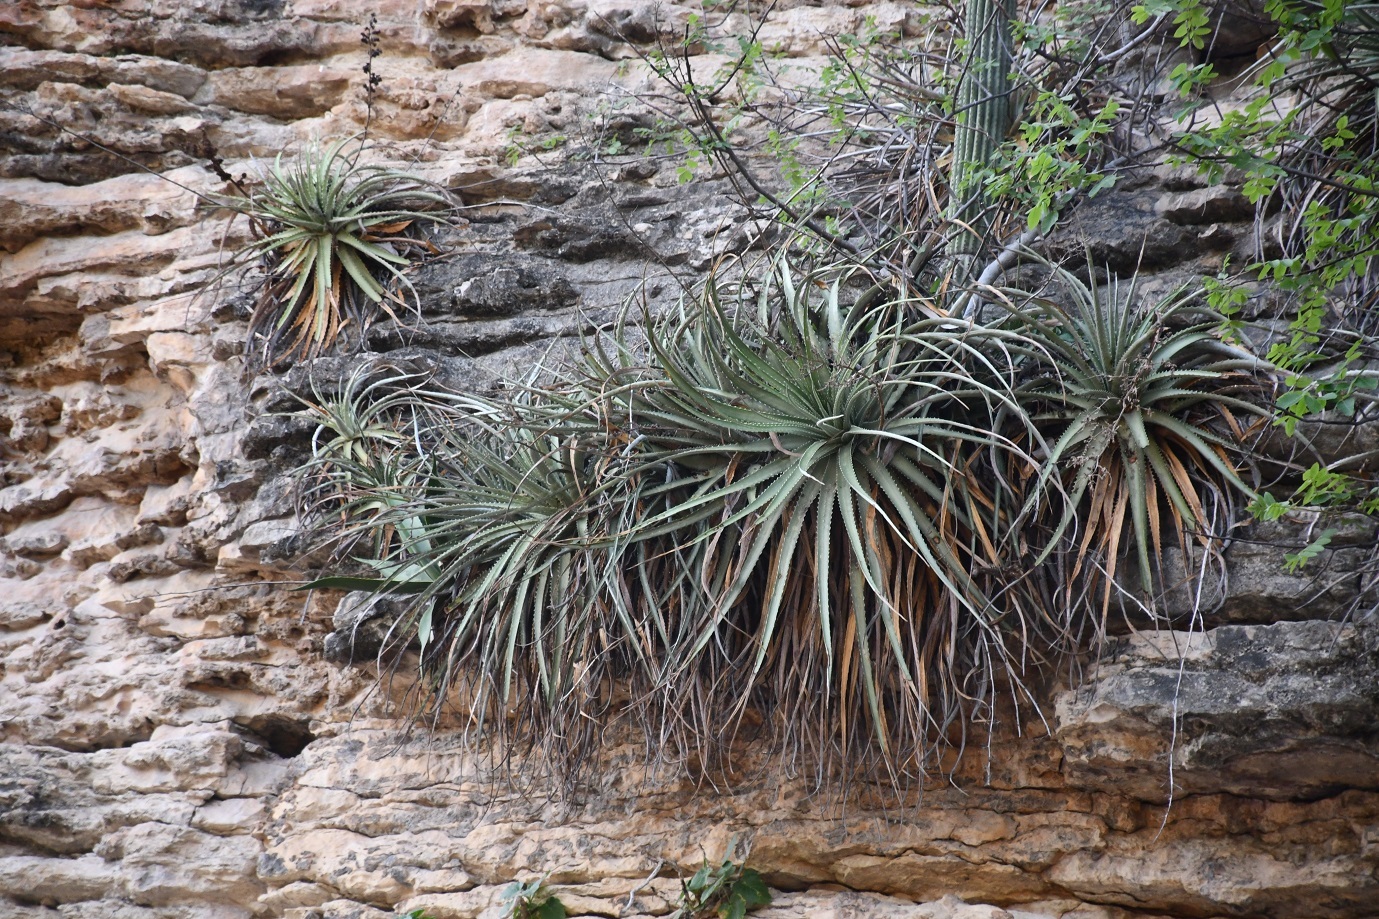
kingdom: Plantae
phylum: Tracheophyta
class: Liliopsida
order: Poales
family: Bromeliaceae
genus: Hechtia
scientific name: Hechtia glomerata
